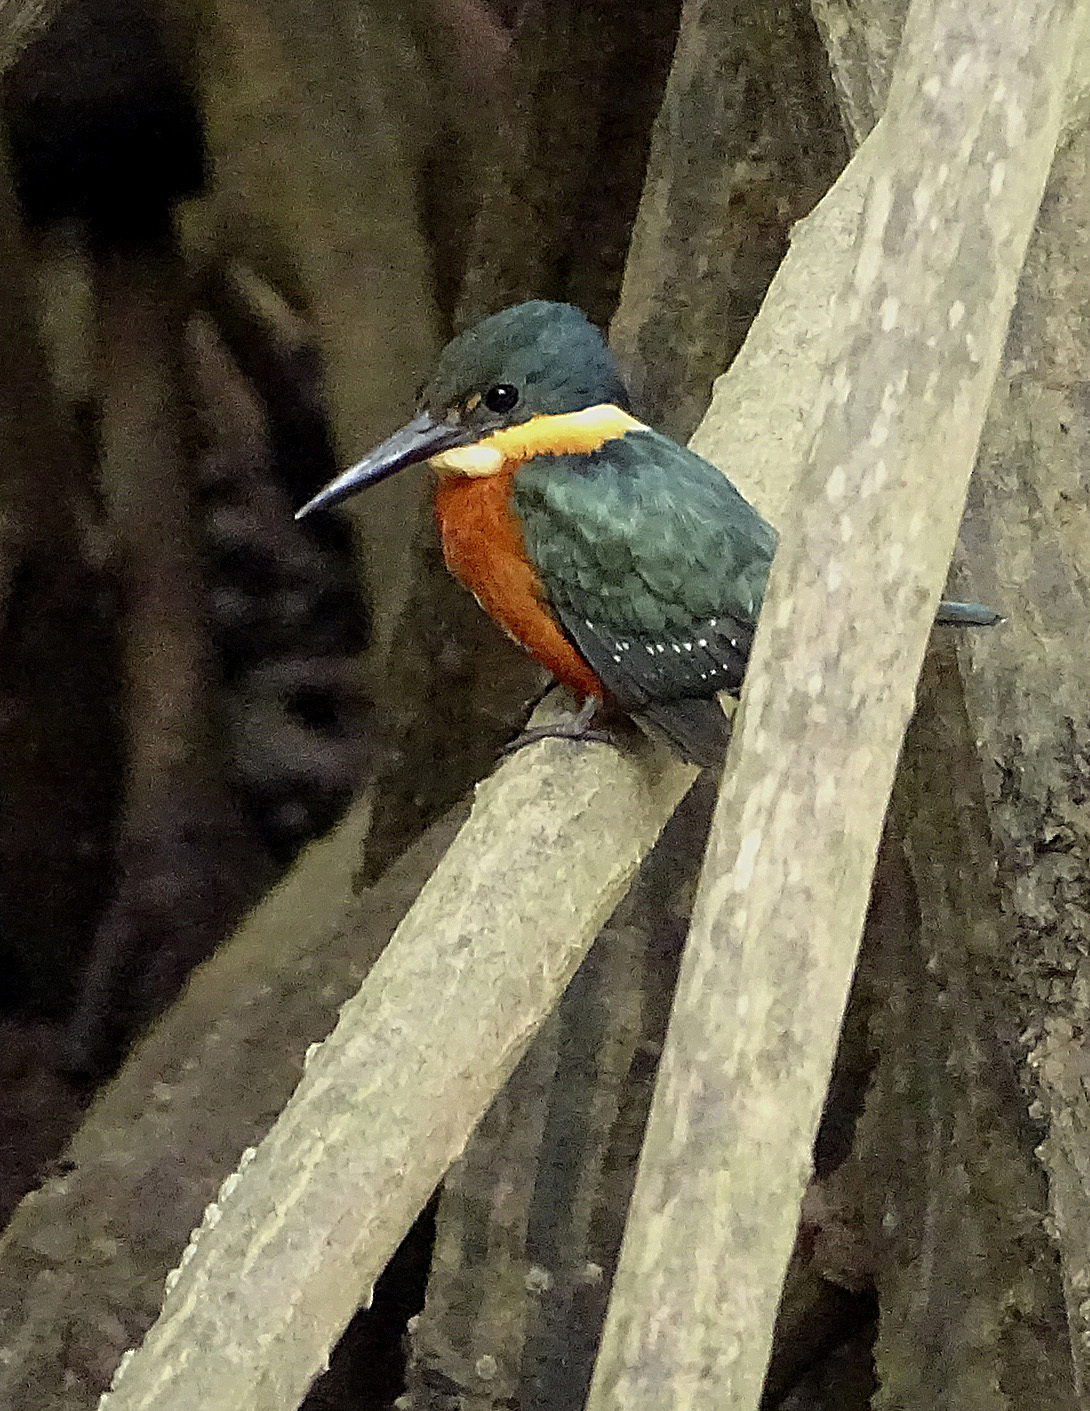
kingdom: Animalia
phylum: Chordata
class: Aves
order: Coraciiformes
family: Alcedinidae
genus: Chloroceryle
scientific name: Chloroceryle aenea
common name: American pygmy kingfisher
